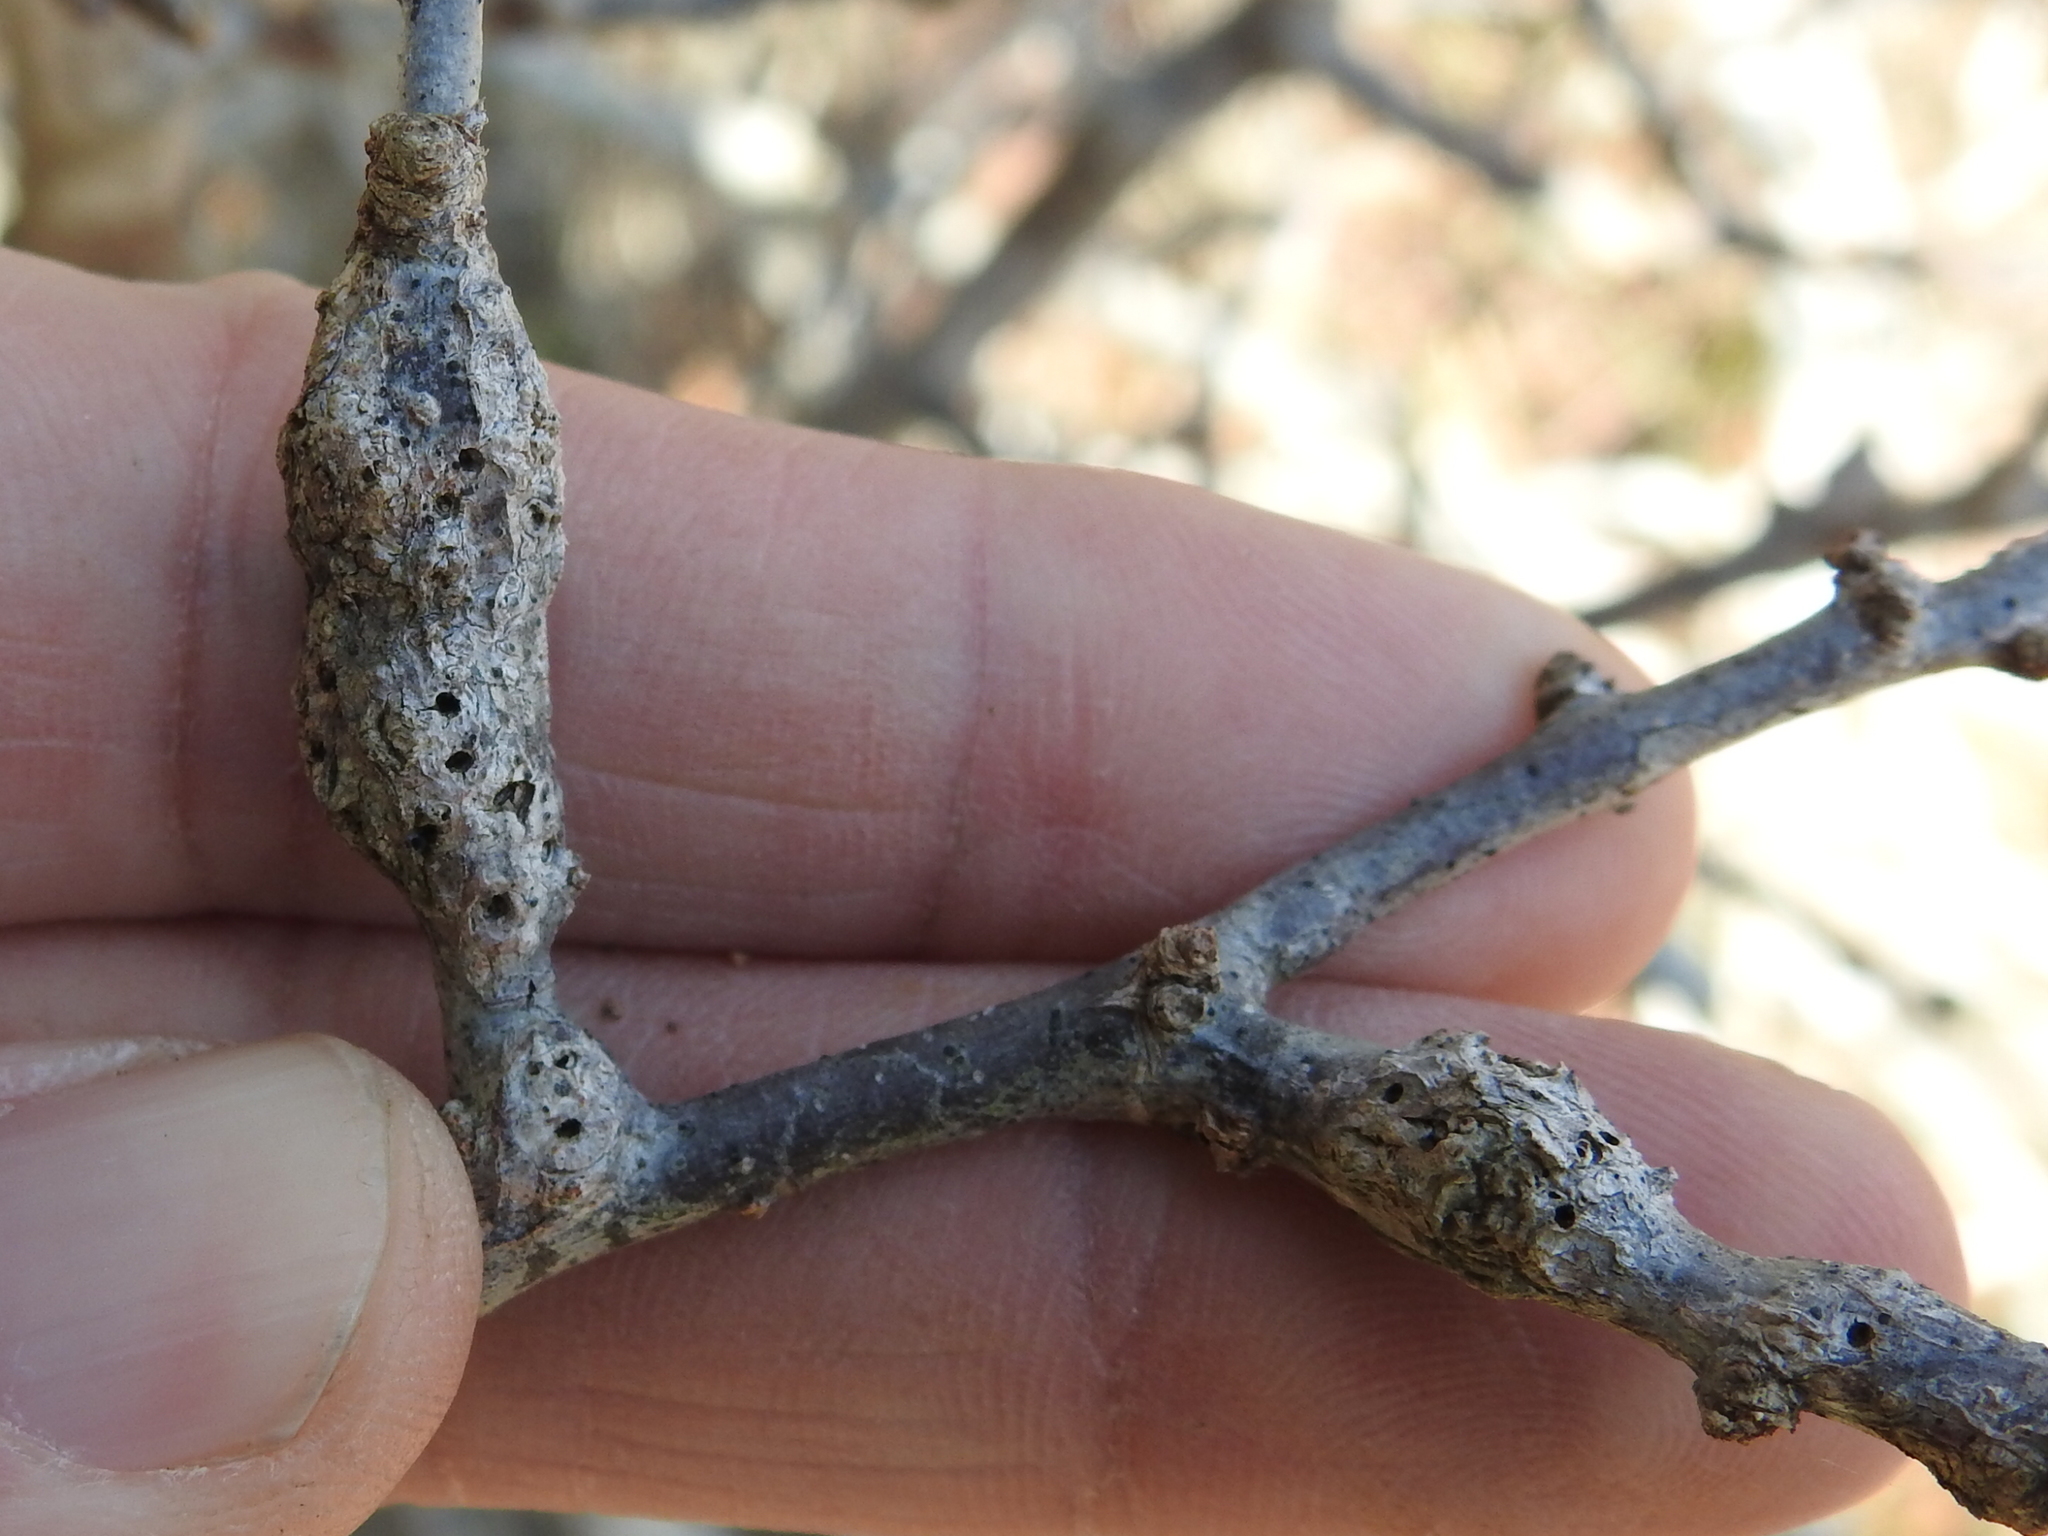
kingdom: Animalia
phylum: Arthropoda
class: Insecta
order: Diptera
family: Cecidomyiidae
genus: Bruggmanniella
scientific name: Bruggmanniella bumeliae
